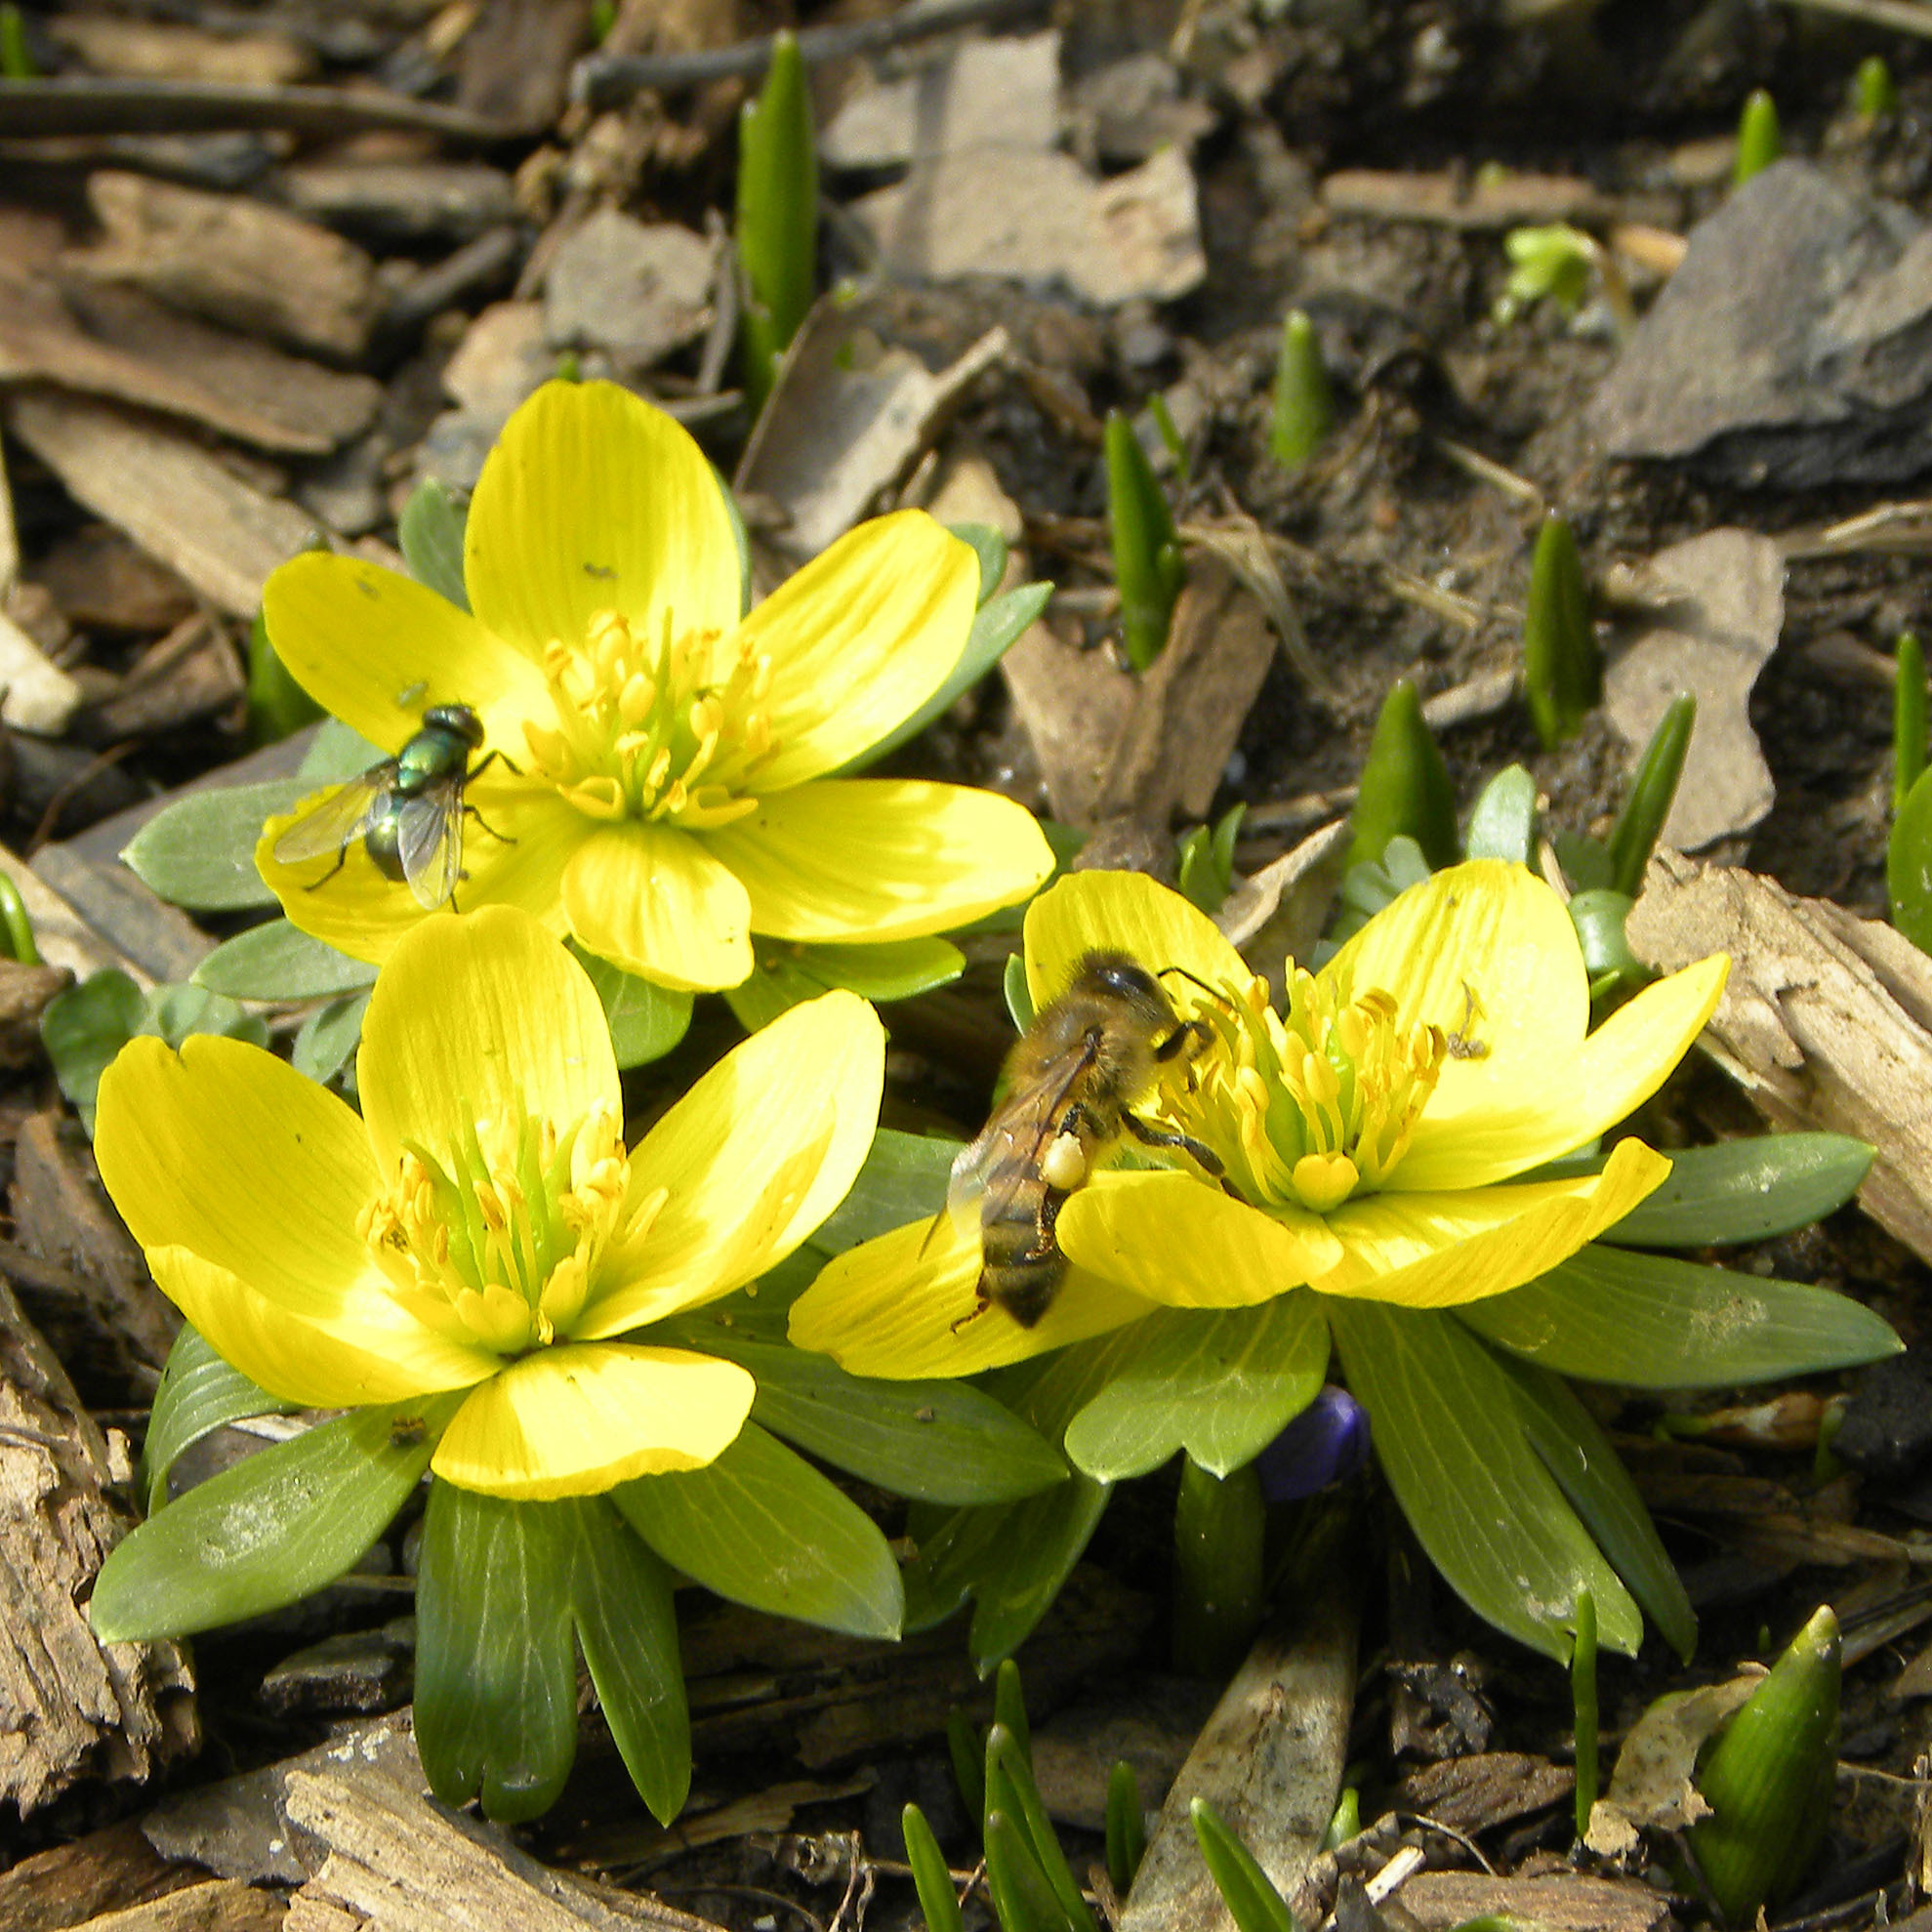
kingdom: Animalia
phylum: Arthropoda
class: Insecta
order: Hymenoptera
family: Apidae
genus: Apis
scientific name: Apis mellifera
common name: Honey bee
